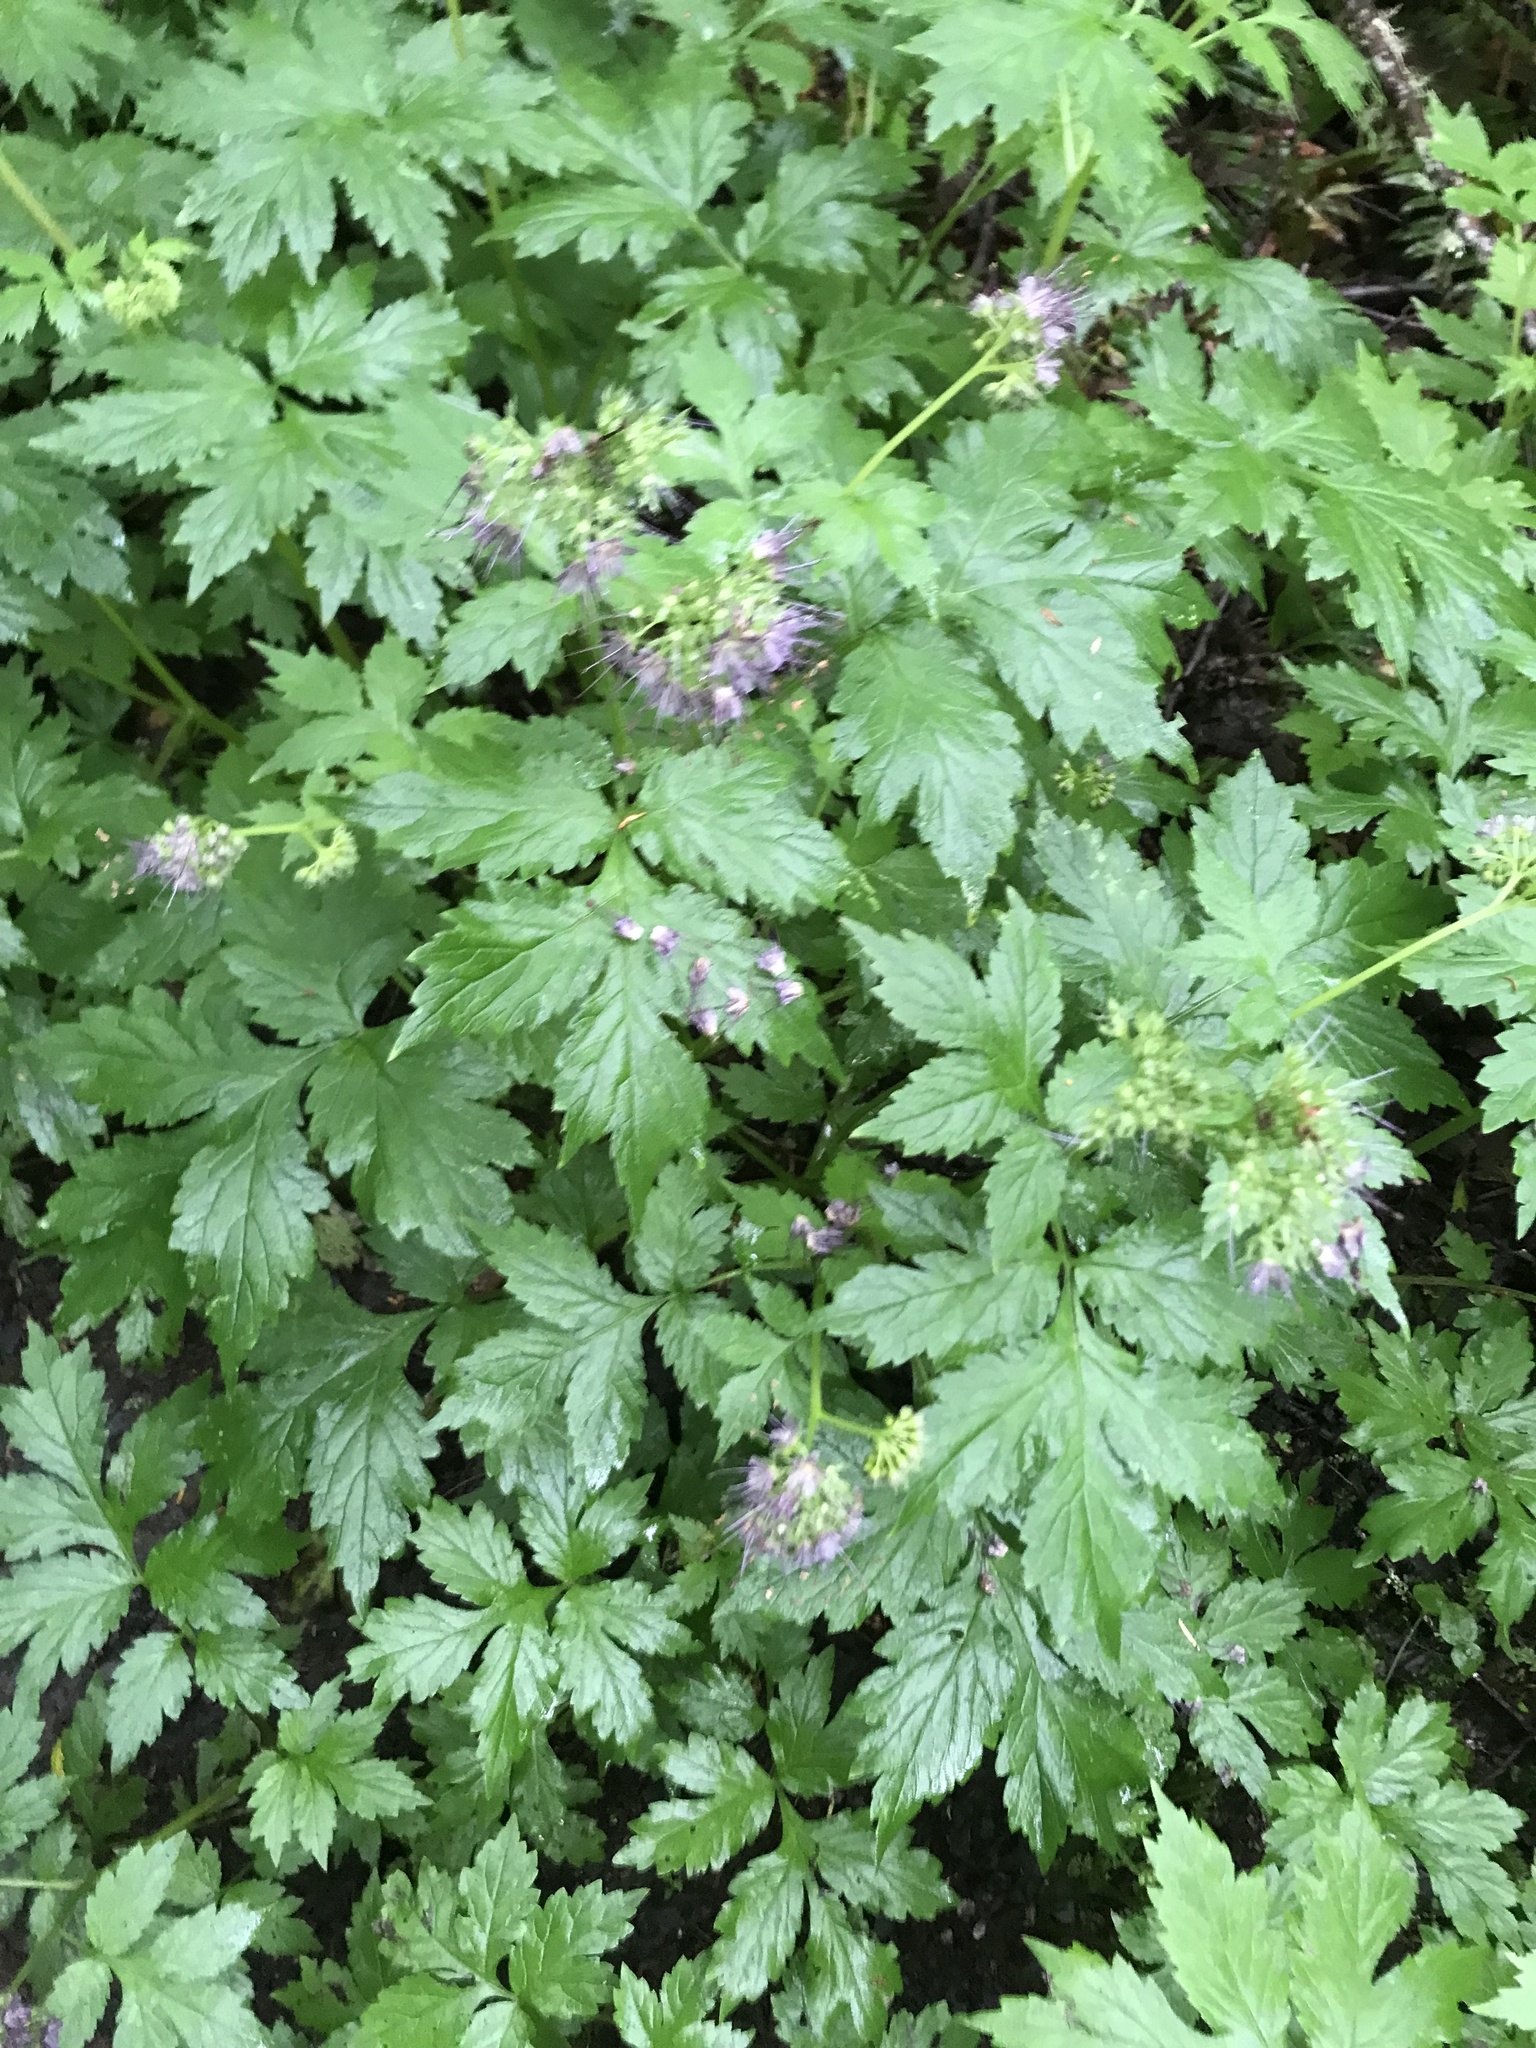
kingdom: Plantae
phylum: Tracheophyta
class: Magnoliopsida
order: Boraginales
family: Hydrophyllaceae
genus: Hydrophyllum
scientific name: Hydrophyllum tenuipes
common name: Pacific waterleaf
